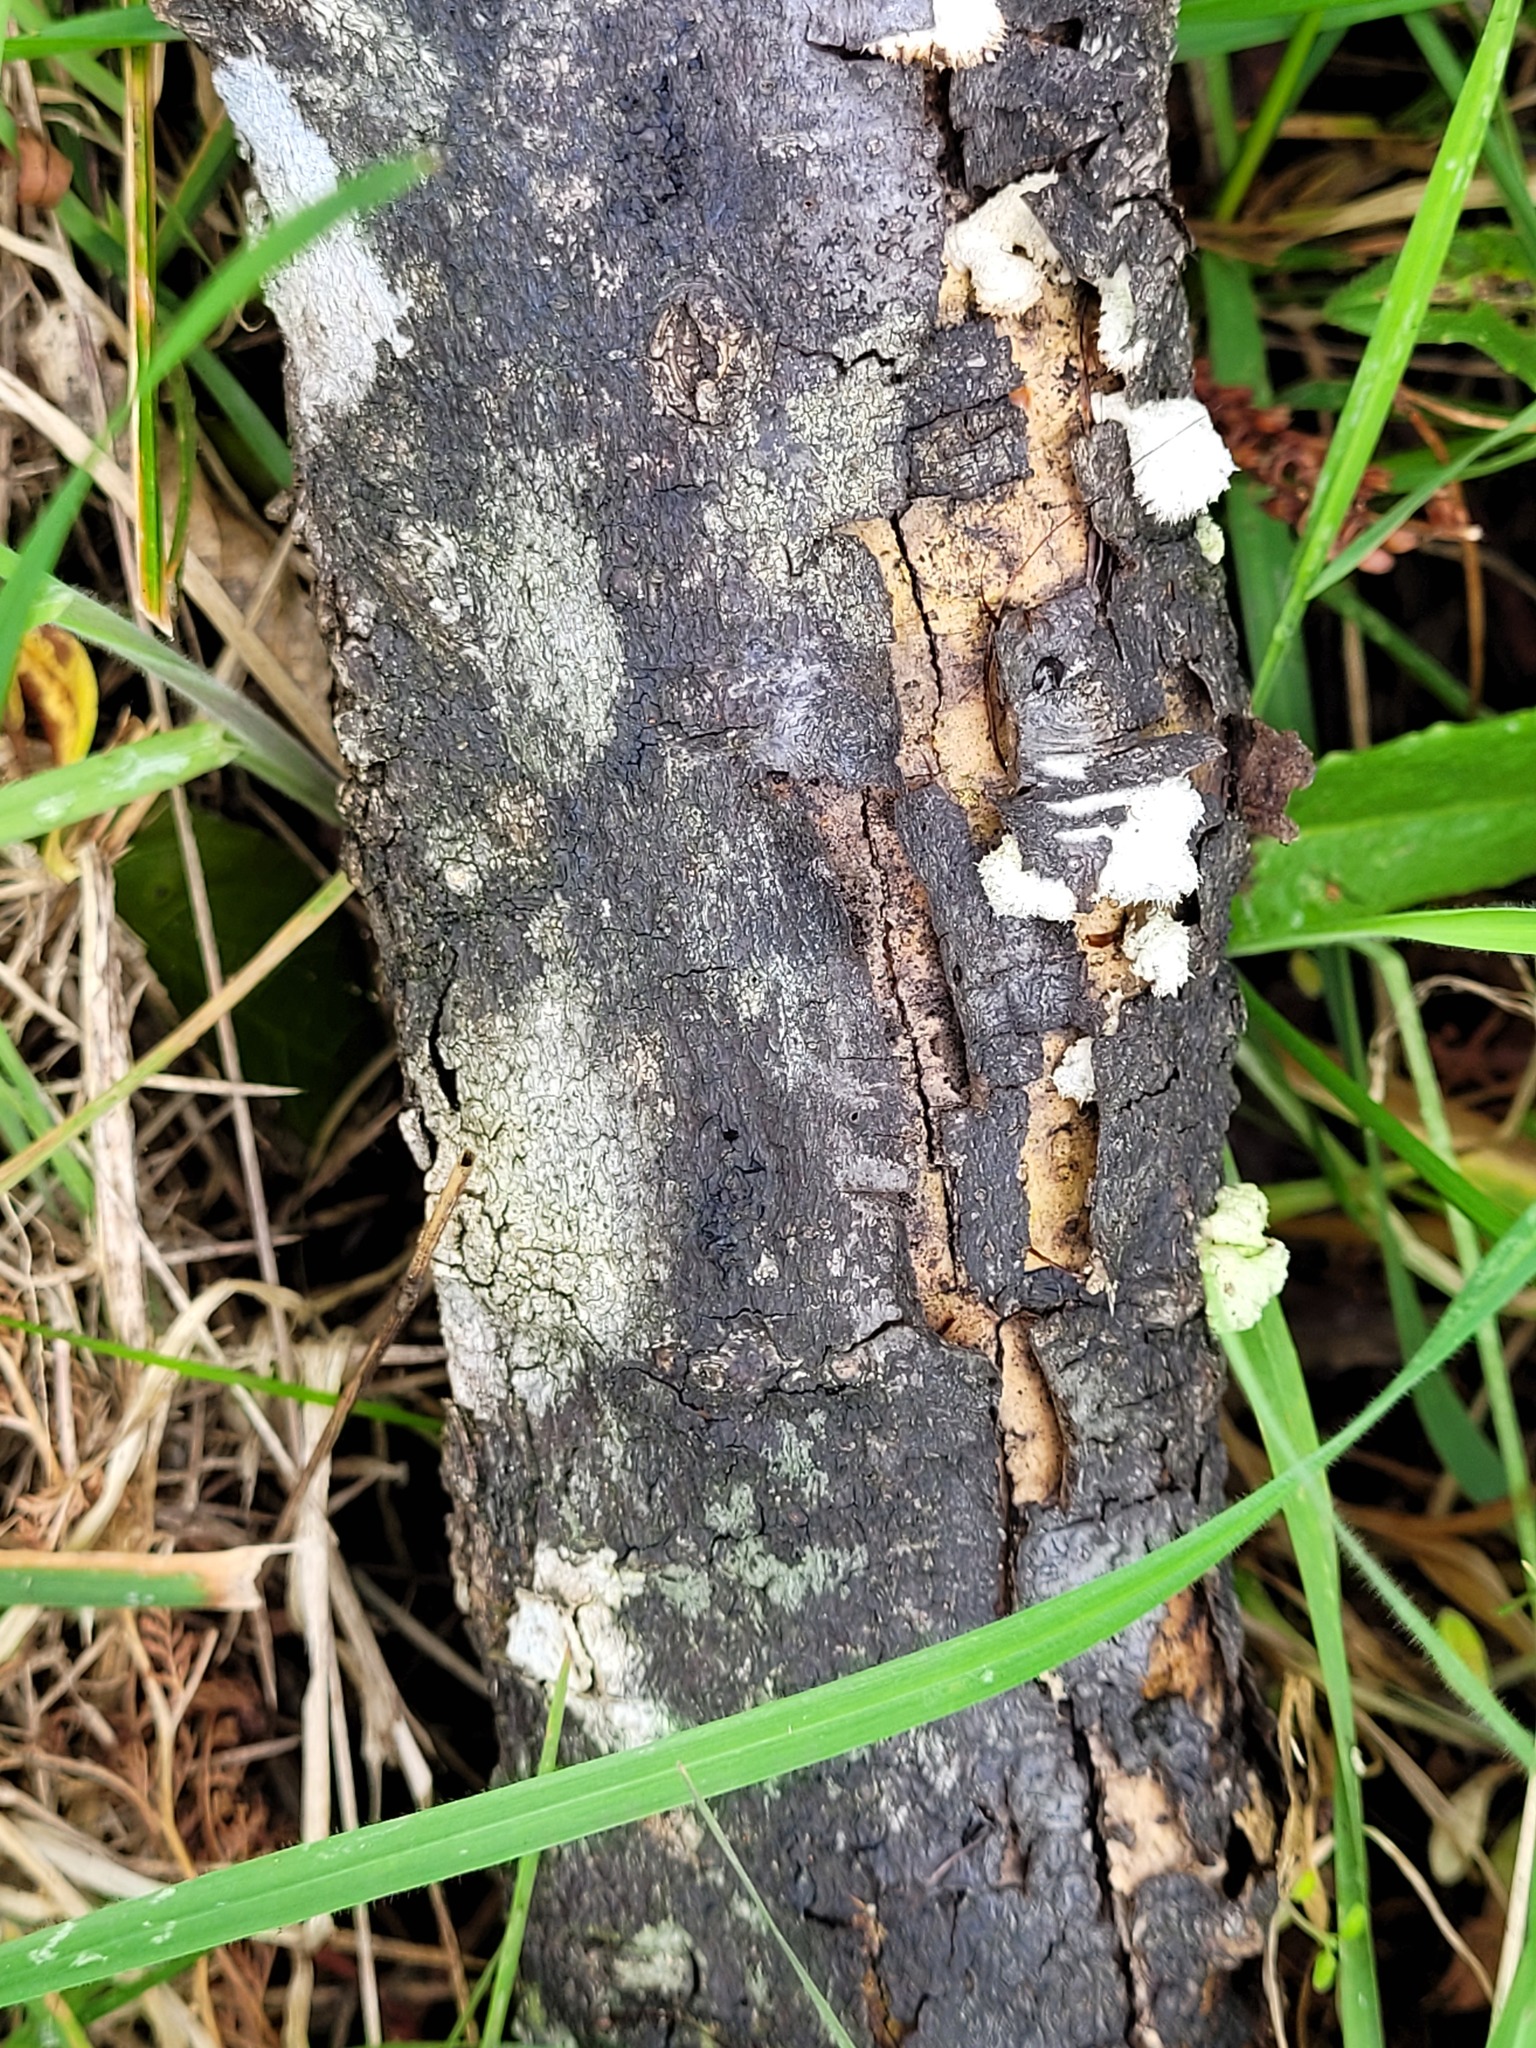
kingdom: Fungi
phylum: Basidiomycota
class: Agaricomycetes
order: Agaricales
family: Schizophyllaceae
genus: Schizophyllum
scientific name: Schizophyllum commune
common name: Common porecrust
